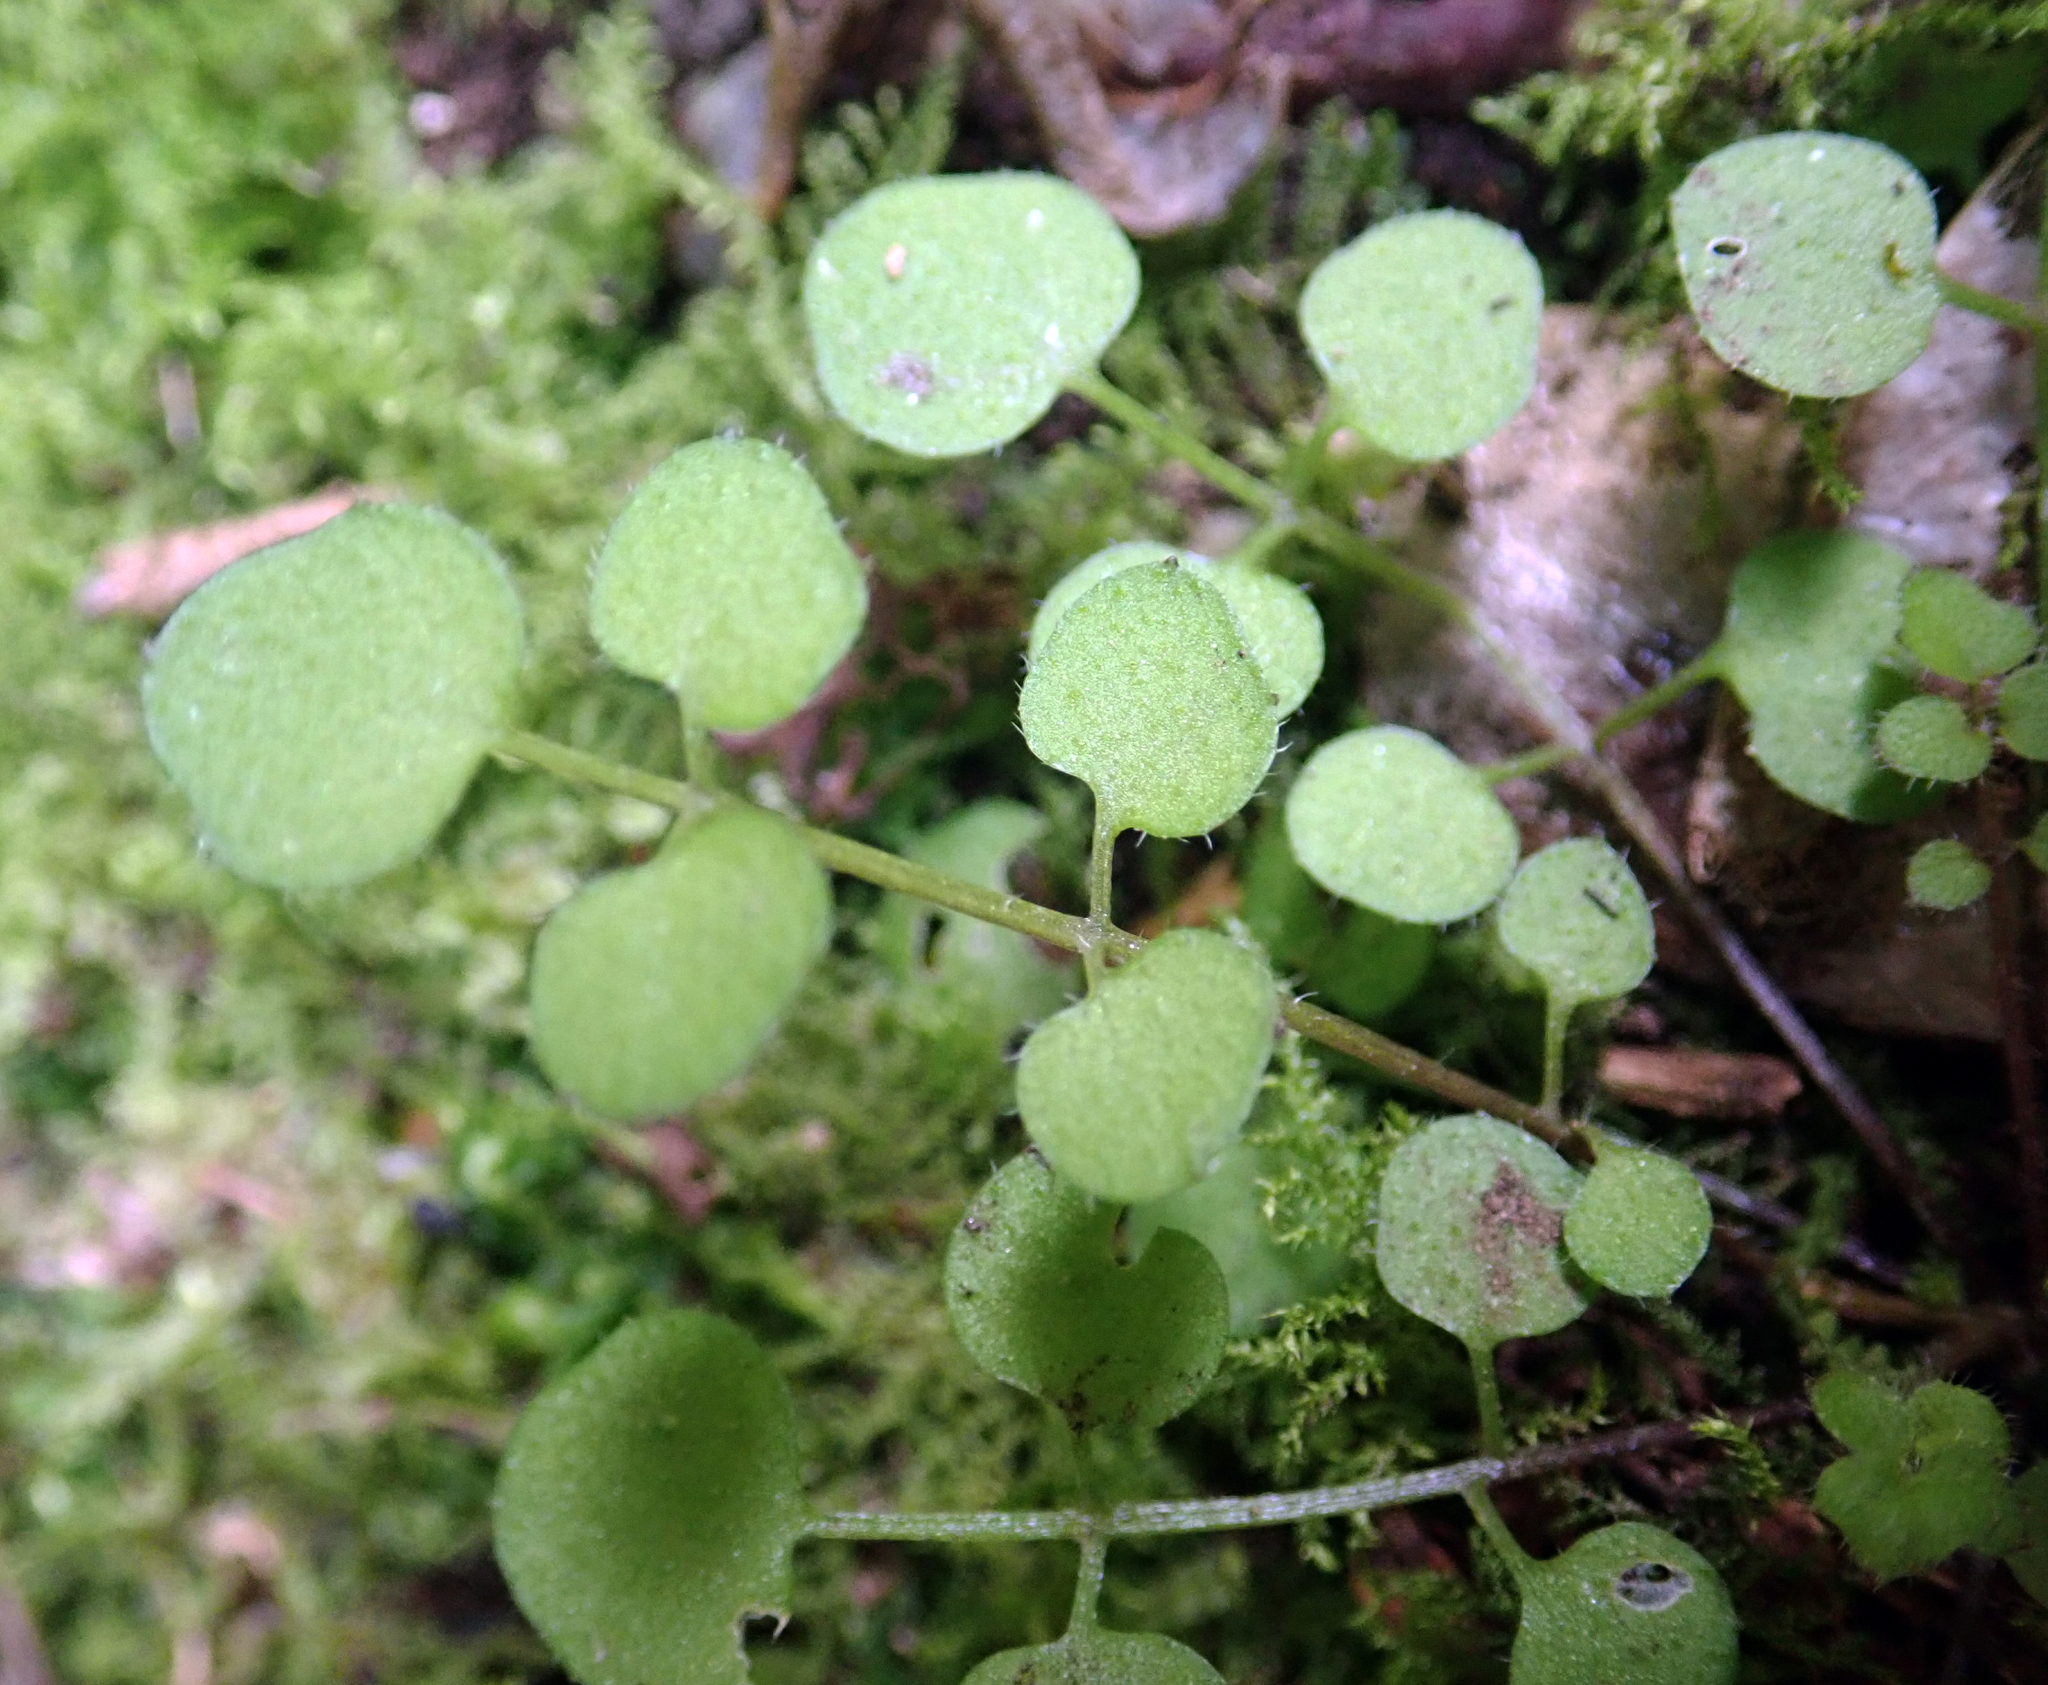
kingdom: Plantae
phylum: Tracheophyta
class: Magnoliopsida
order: Brassicales
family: Brassicaceae
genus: Cardamine
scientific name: Cardamine forsteri
